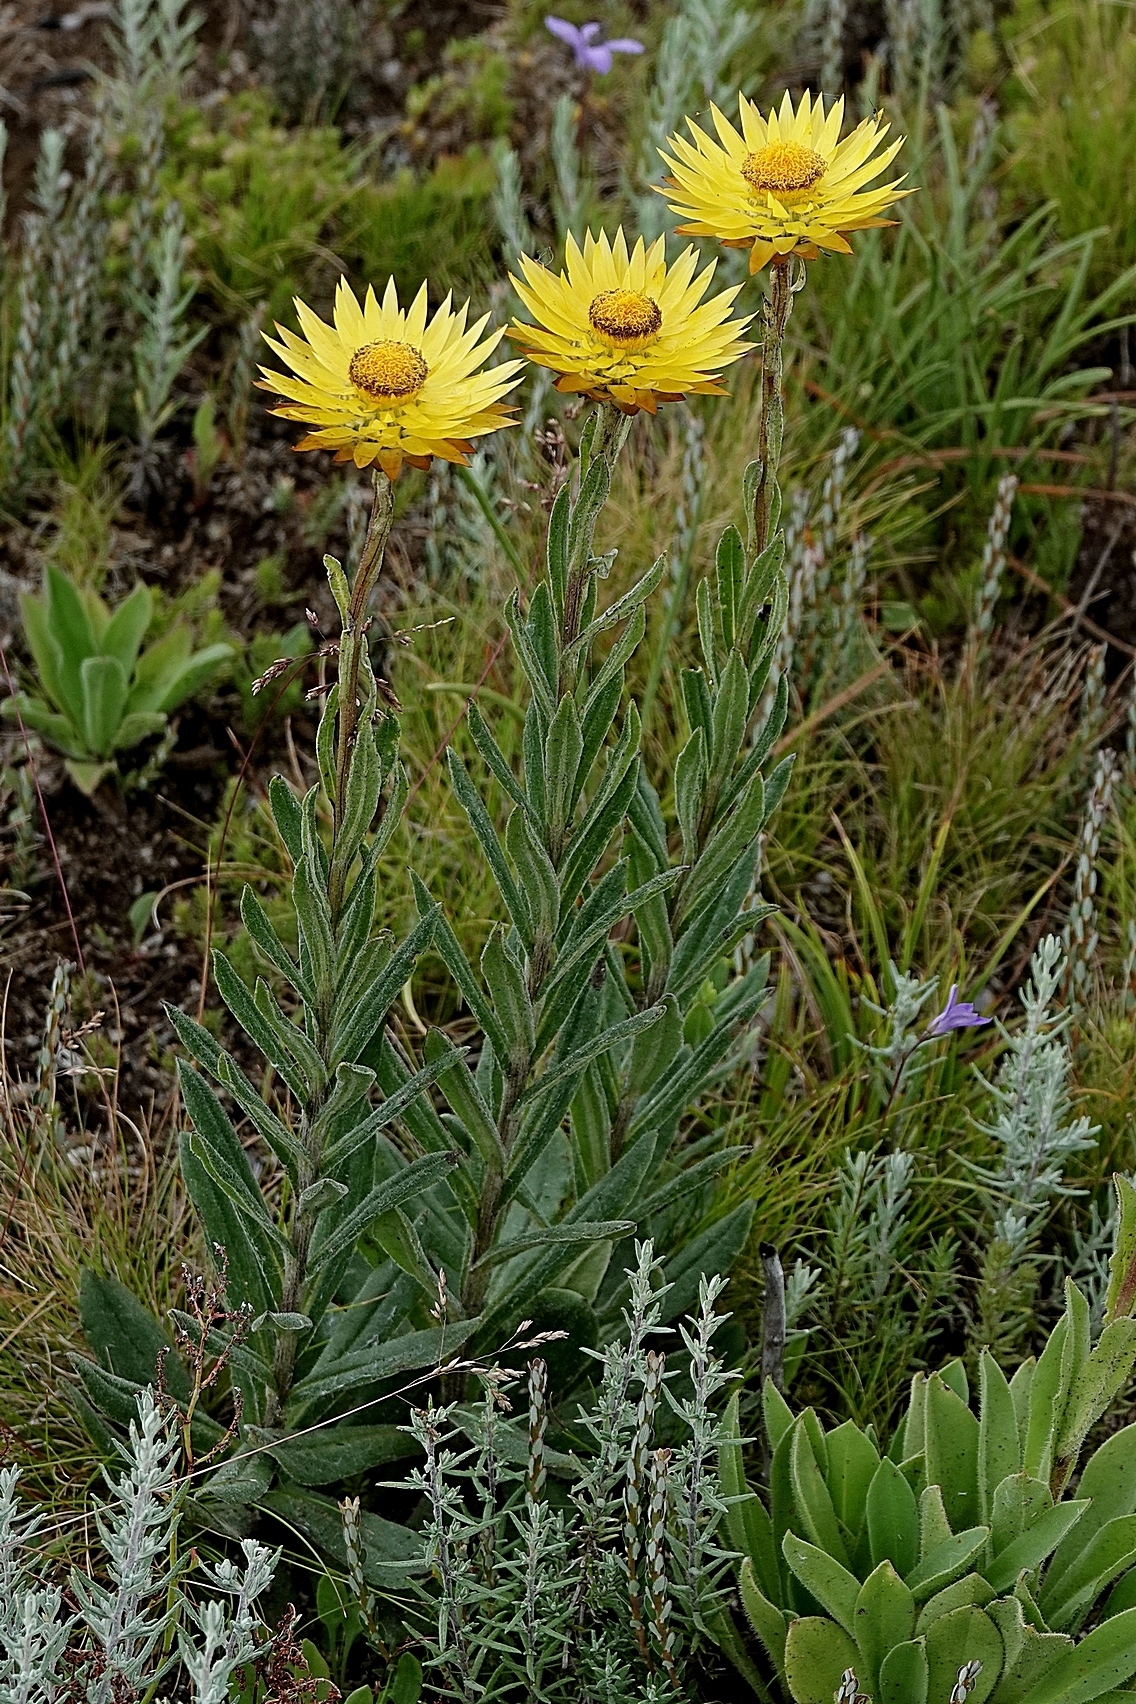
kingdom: Plantae
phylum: Tracheophyta
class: Magnoliopsida
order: Asterales
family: Asteraceae
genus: Xerochrysum
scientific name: Xerochrysum subundulatum
